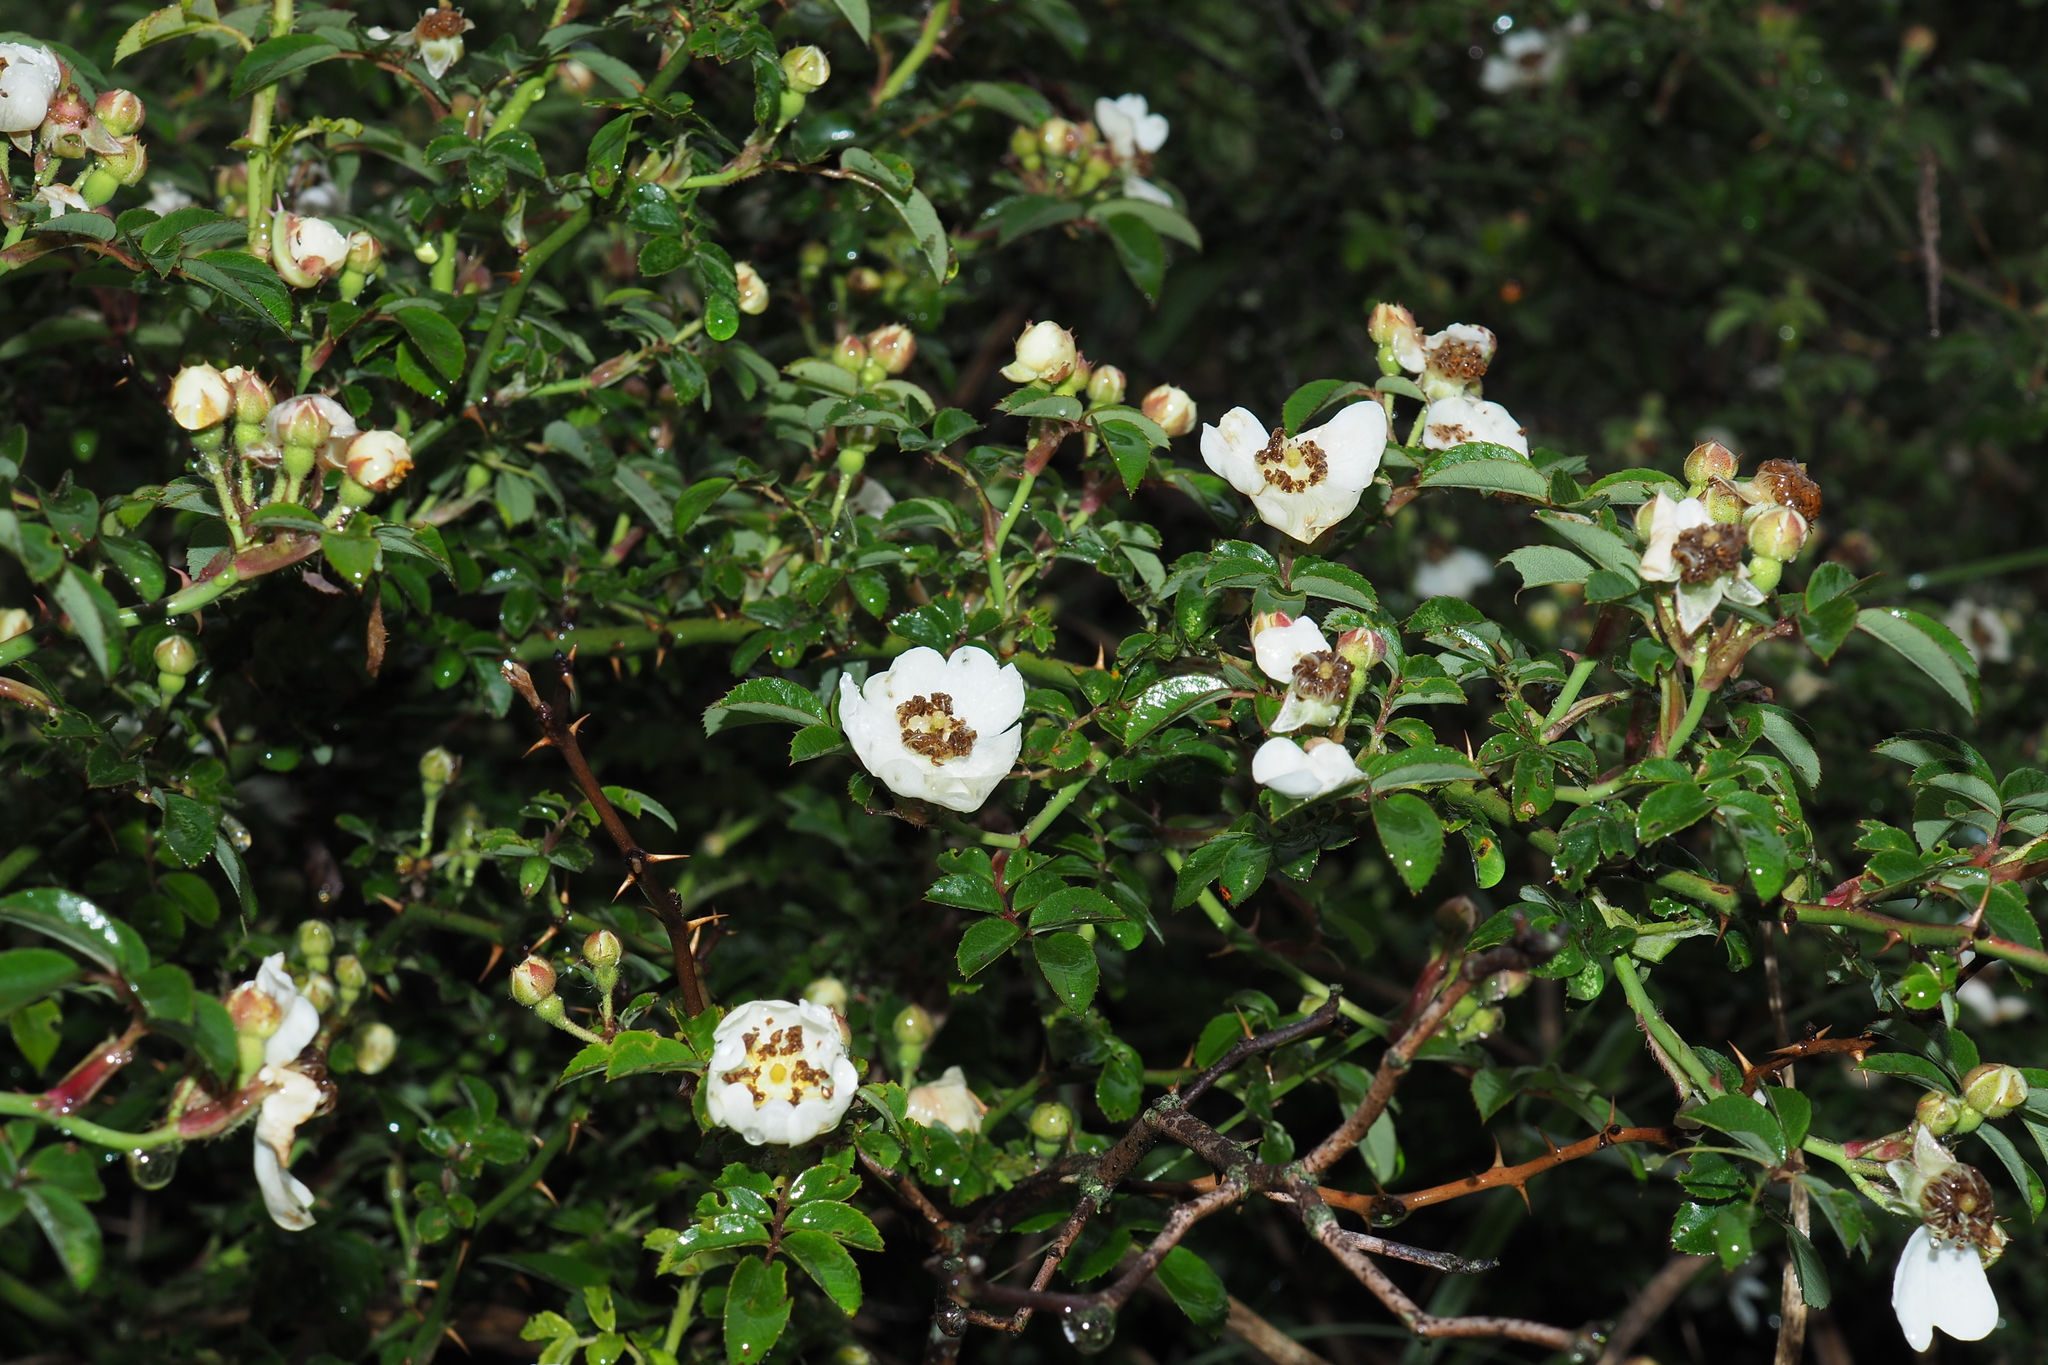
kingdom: Plantae
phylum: Tracheophyta
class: Magnoliopsida
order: Rosales
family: Rosaceae
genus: Rosa
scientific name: Rosa transmorrisonensis
